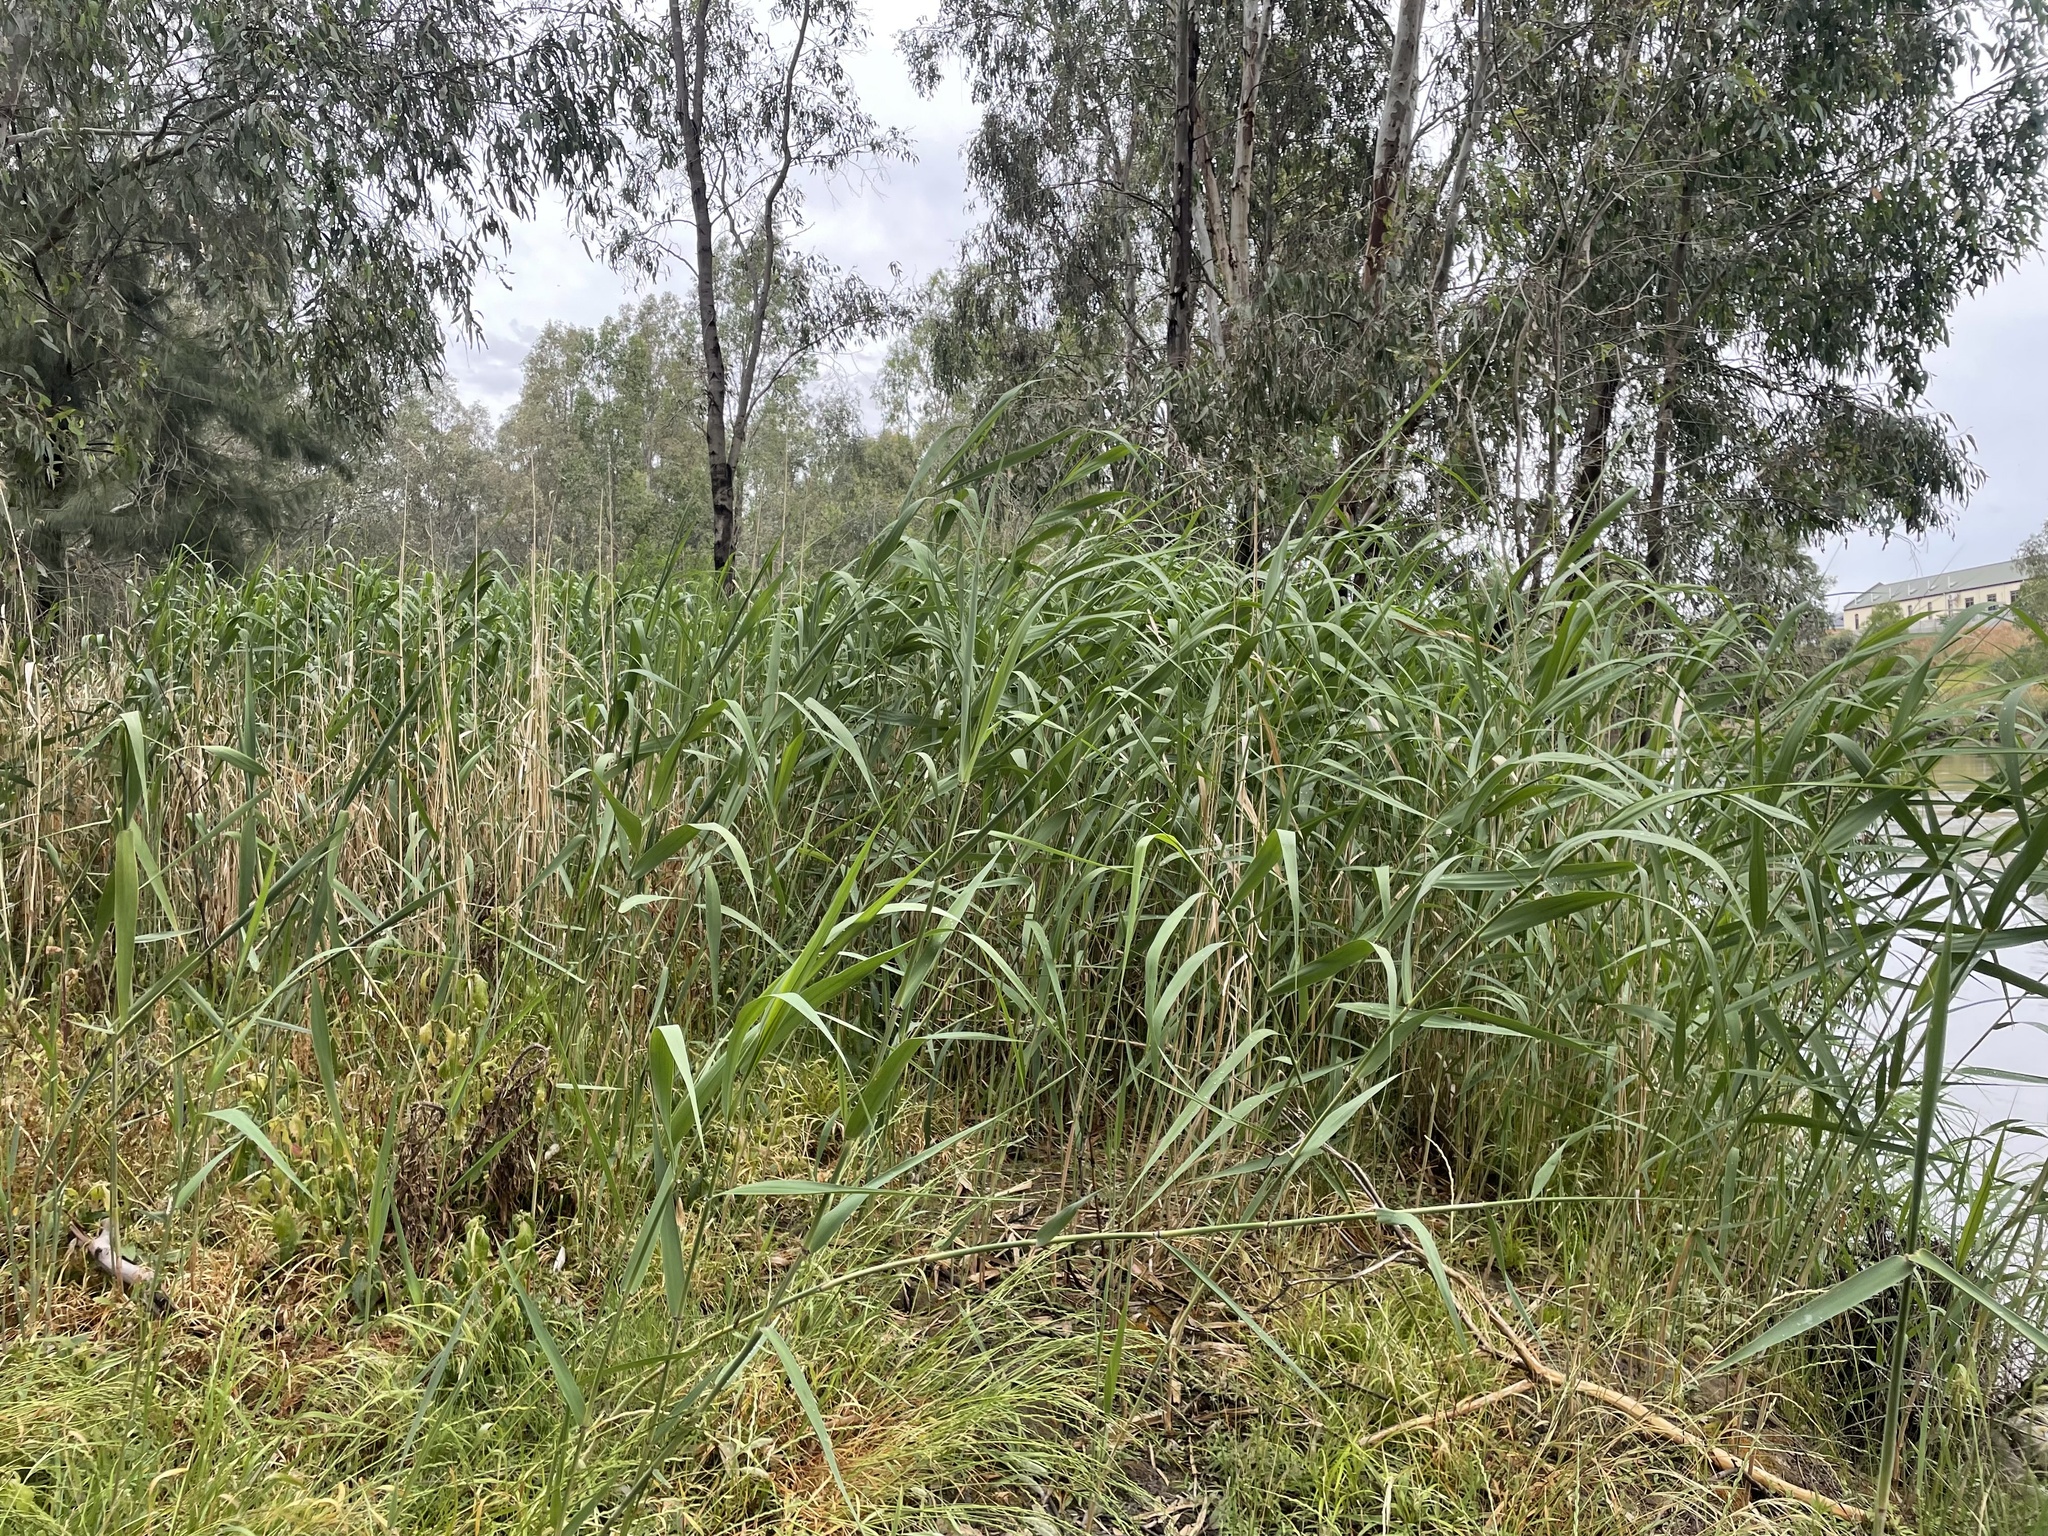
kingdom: Plantae
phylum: Tracheophyta
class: Liliopsida
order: Poales
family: Poaceae
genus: Phragmites
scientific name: Phragmites australis
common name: Common reed
